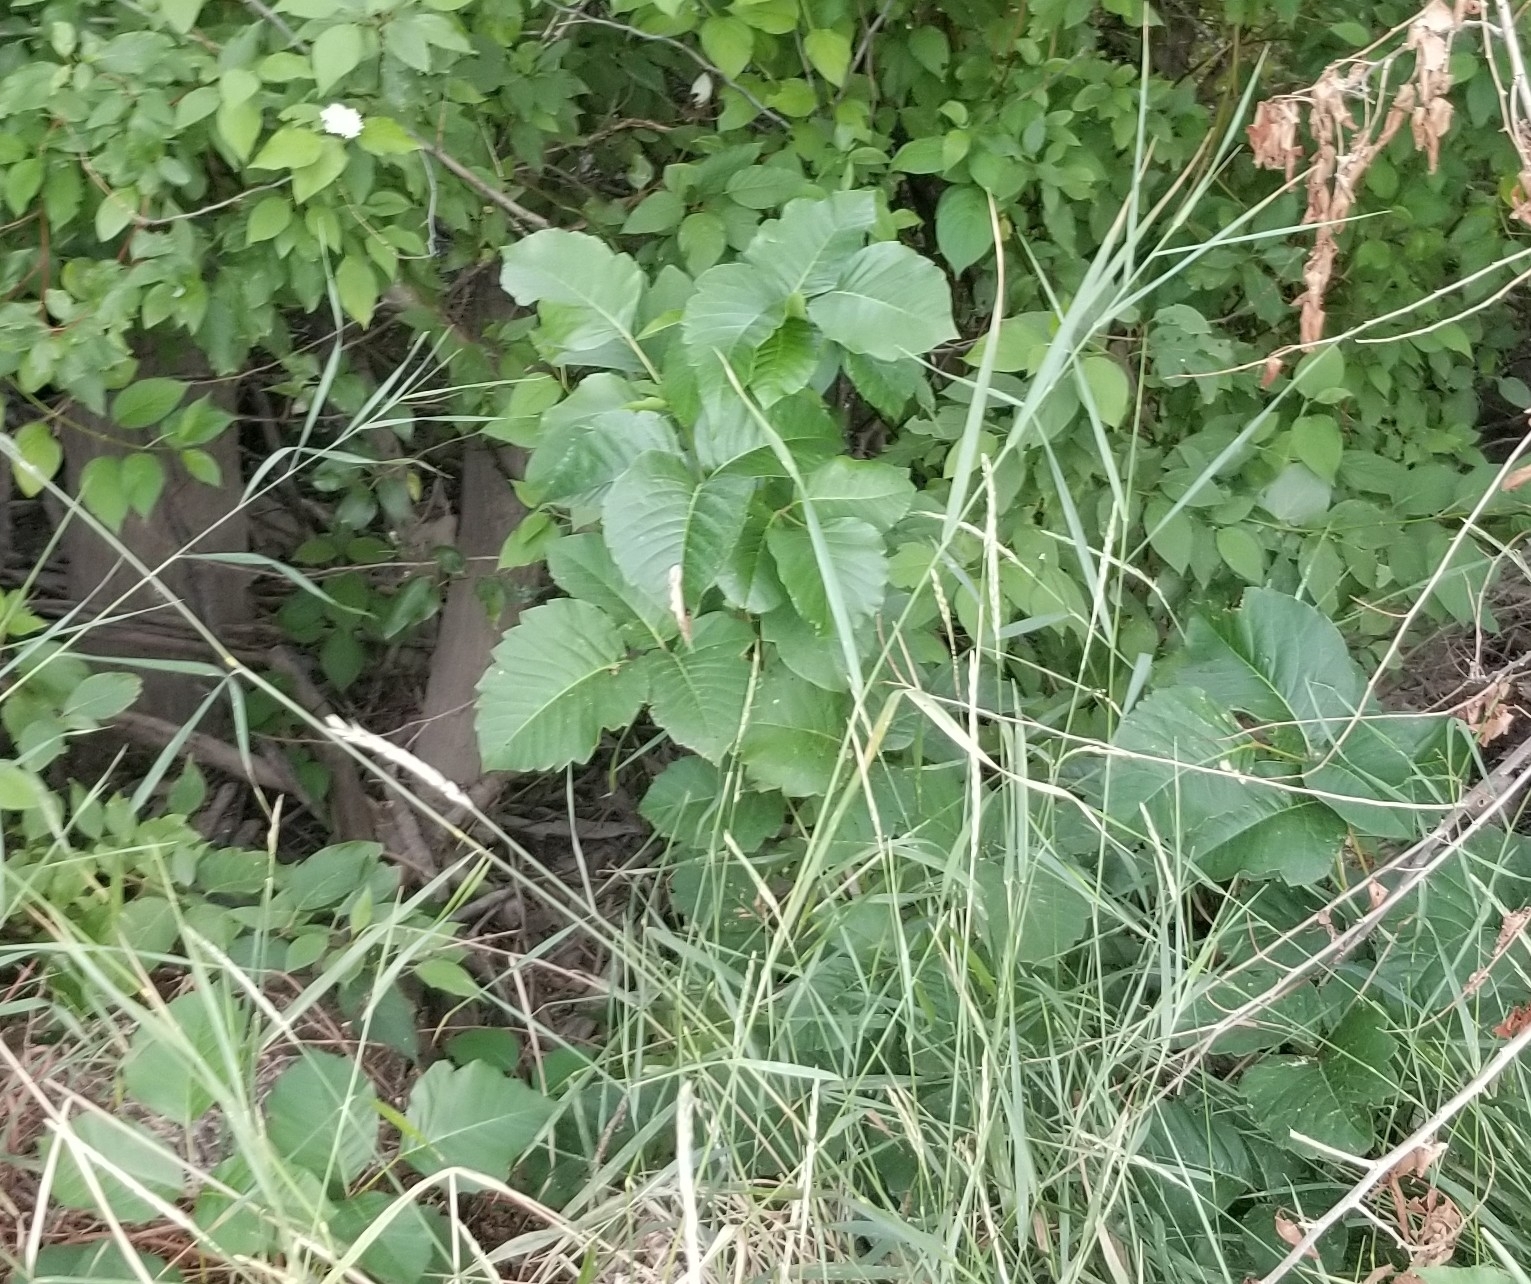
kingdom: Plantae
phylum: Tracheophyta
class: Magnoliopsida
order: Sapindales
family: Anacardiaceae
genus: Toxicodendron
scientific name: Toxicodendron rydbergii
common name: Rydberg's poison-ivy
